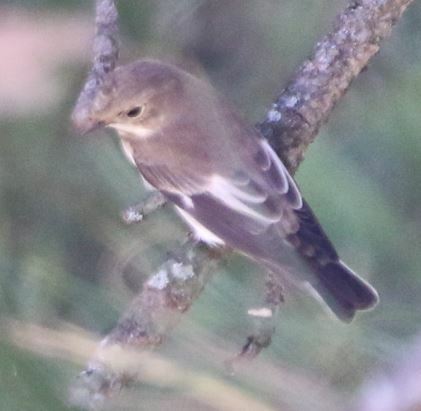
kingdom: Animalia
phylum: Chordata
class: Aves
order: Passeriformes
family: Muscicapidae
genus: Ficedula
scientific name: Ficedula hypoleuca
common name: European pied flycatcher
